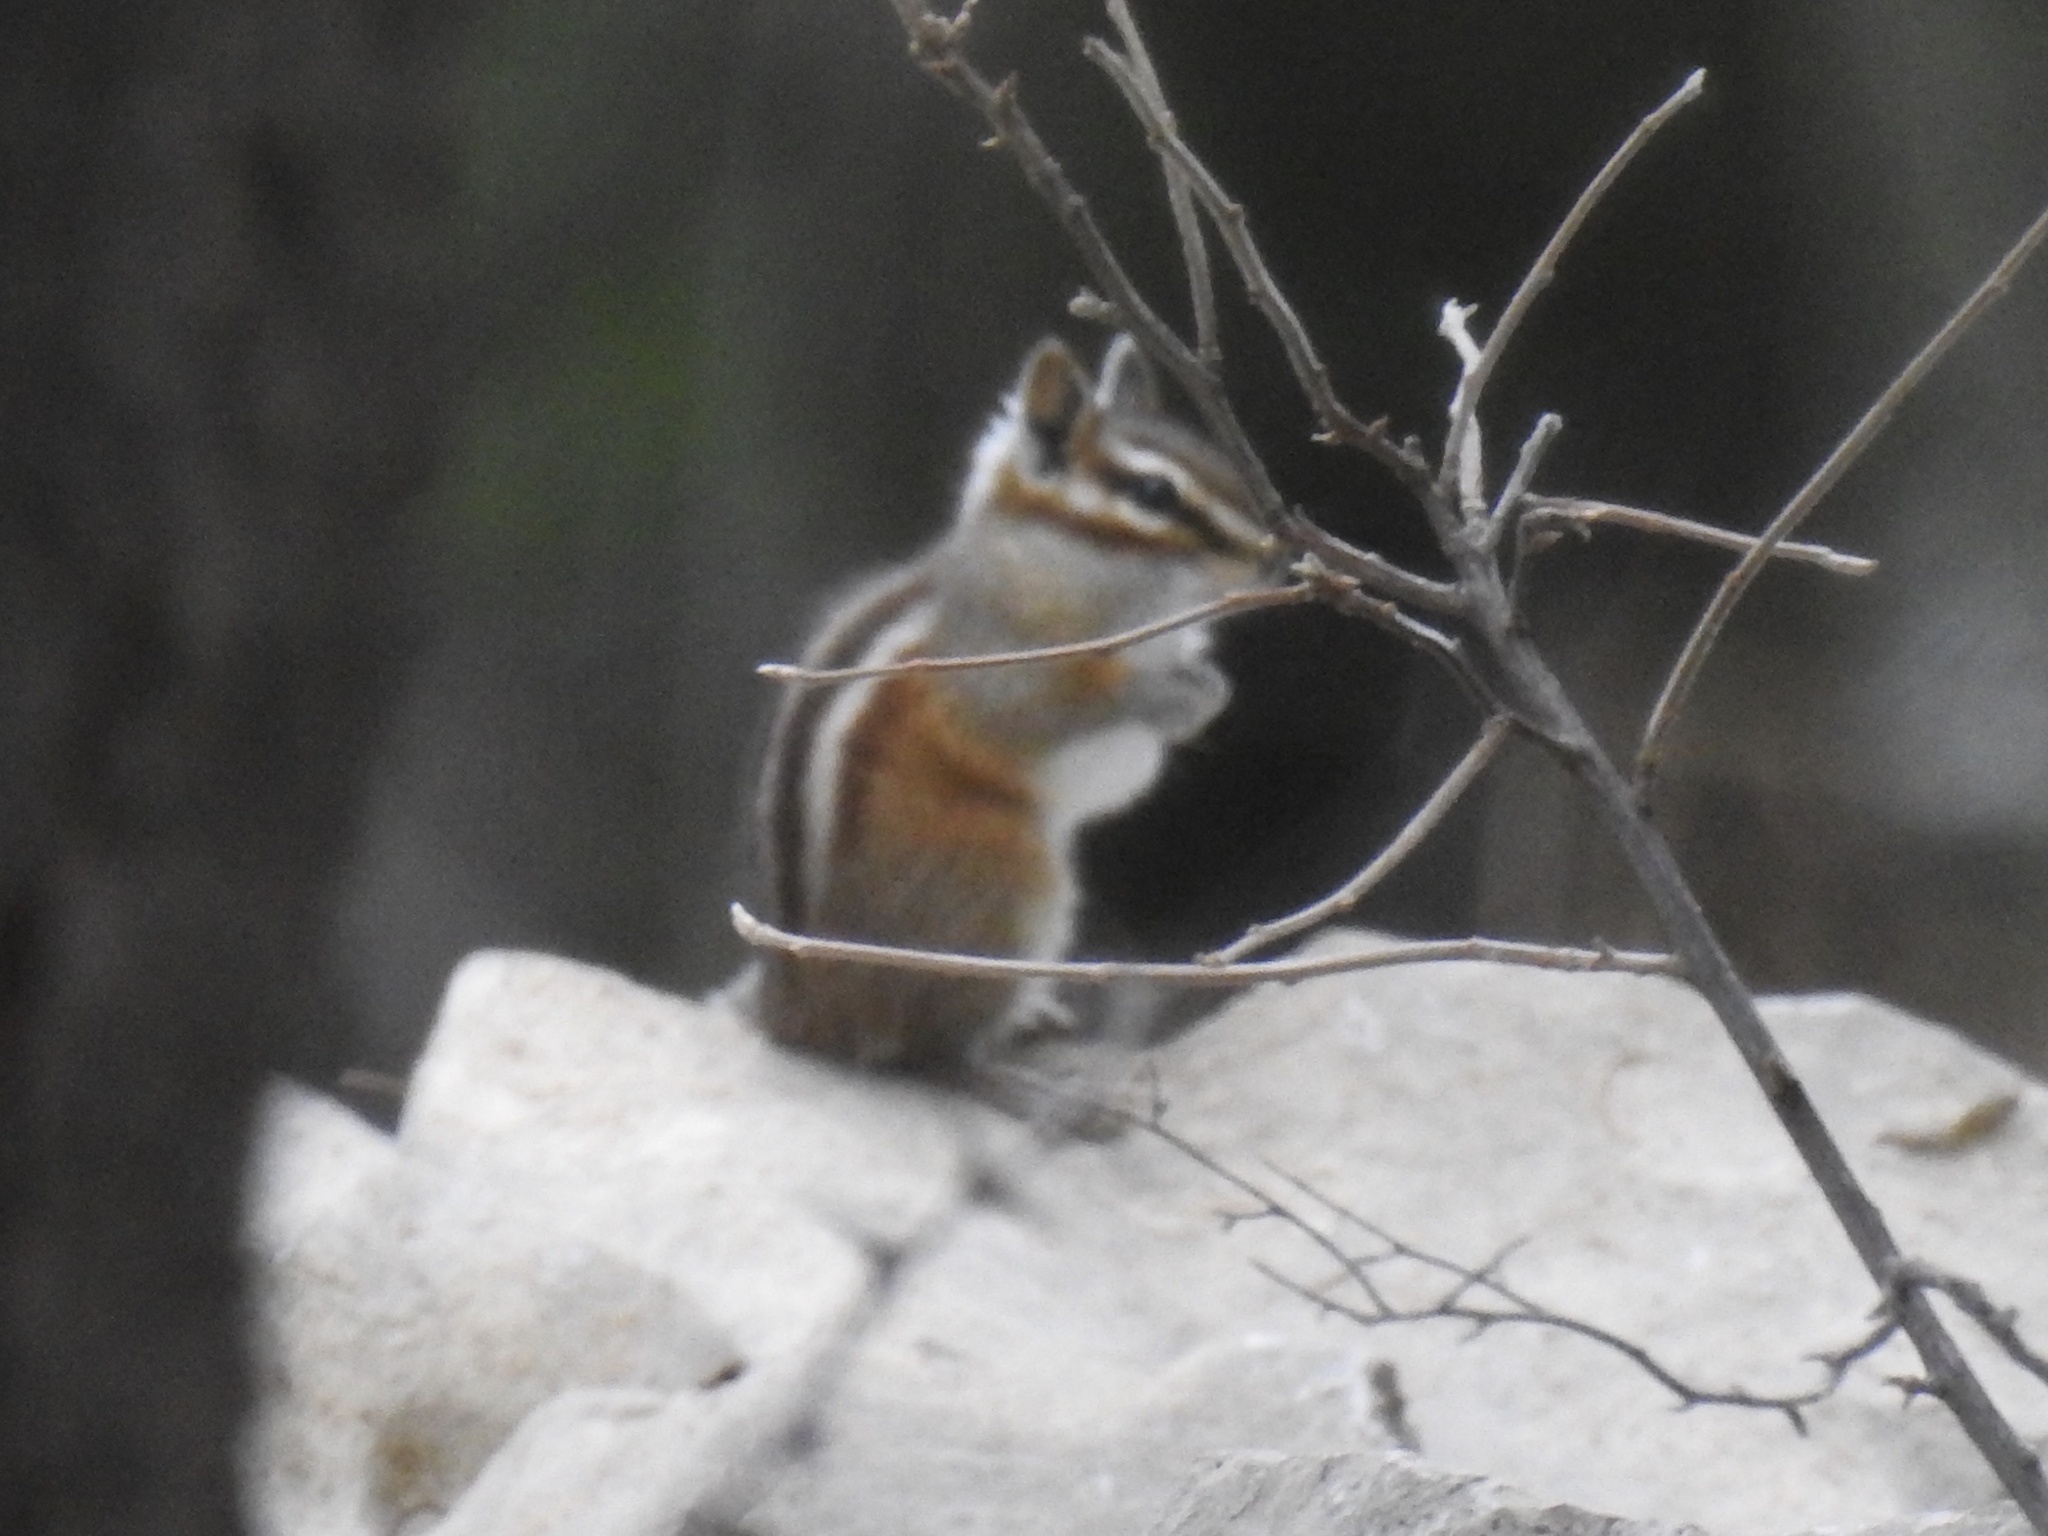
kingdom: Animalia
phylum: Chordata
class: Mammalia
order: Rodentia
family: Sciuridae
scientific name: Sciuridae
